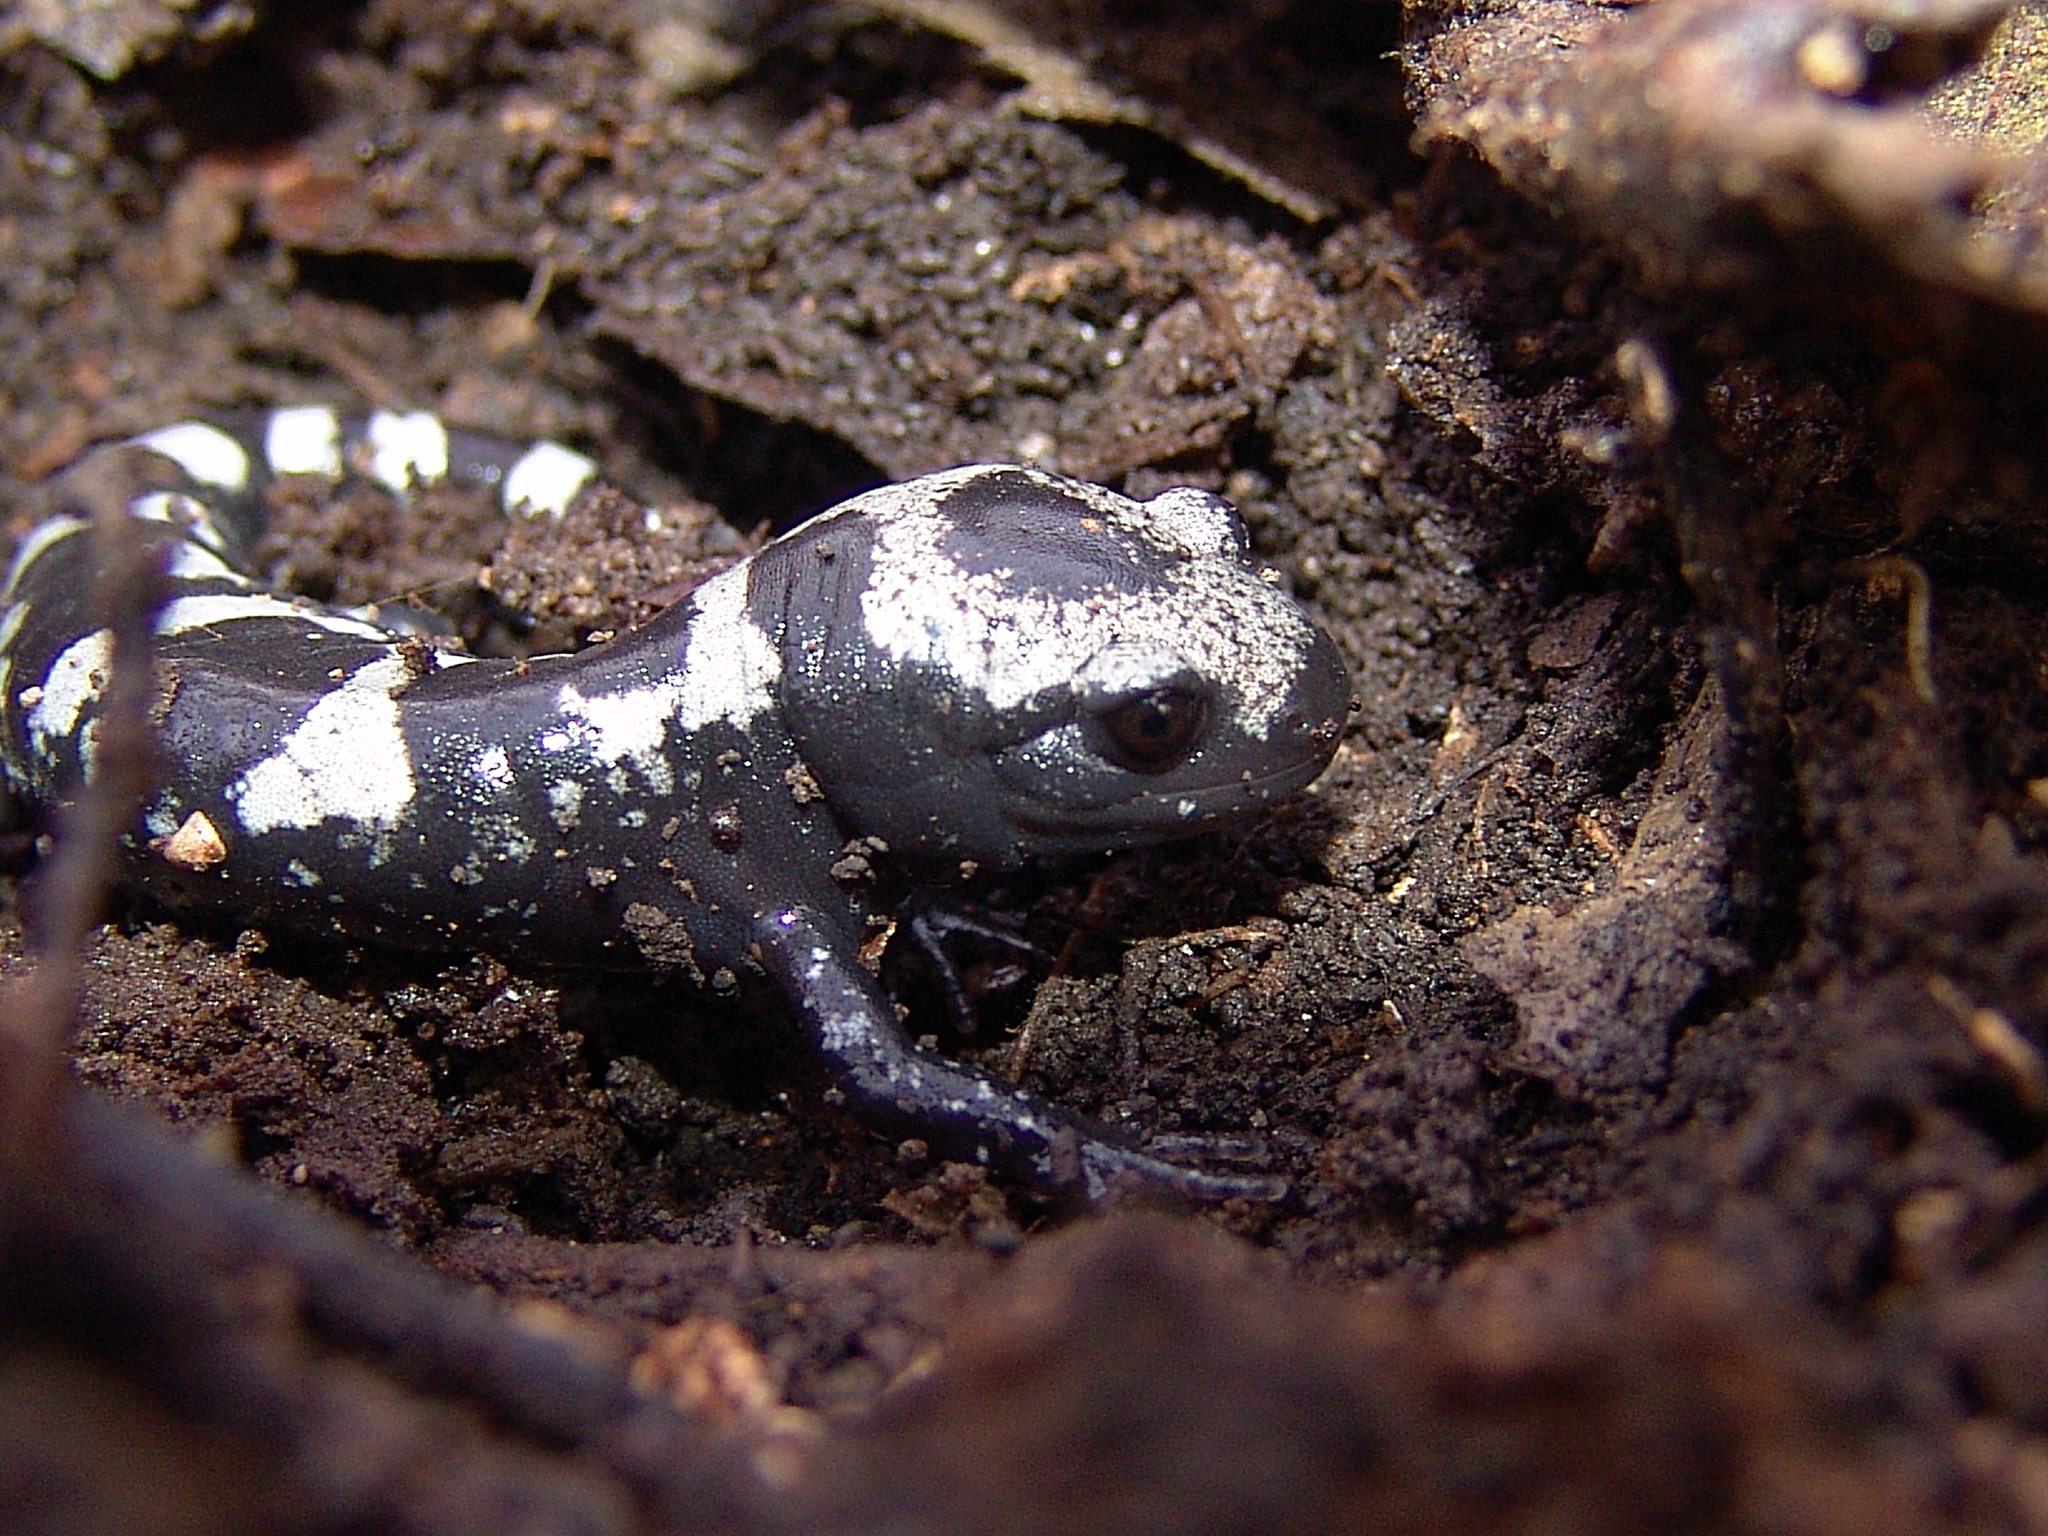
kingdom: Animalia
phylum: Chordata
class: Amphibia
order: Caudata
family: Ambystomatidae
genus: Ambystoma
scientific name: Ambystoma opacum
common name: Marbled salamander
